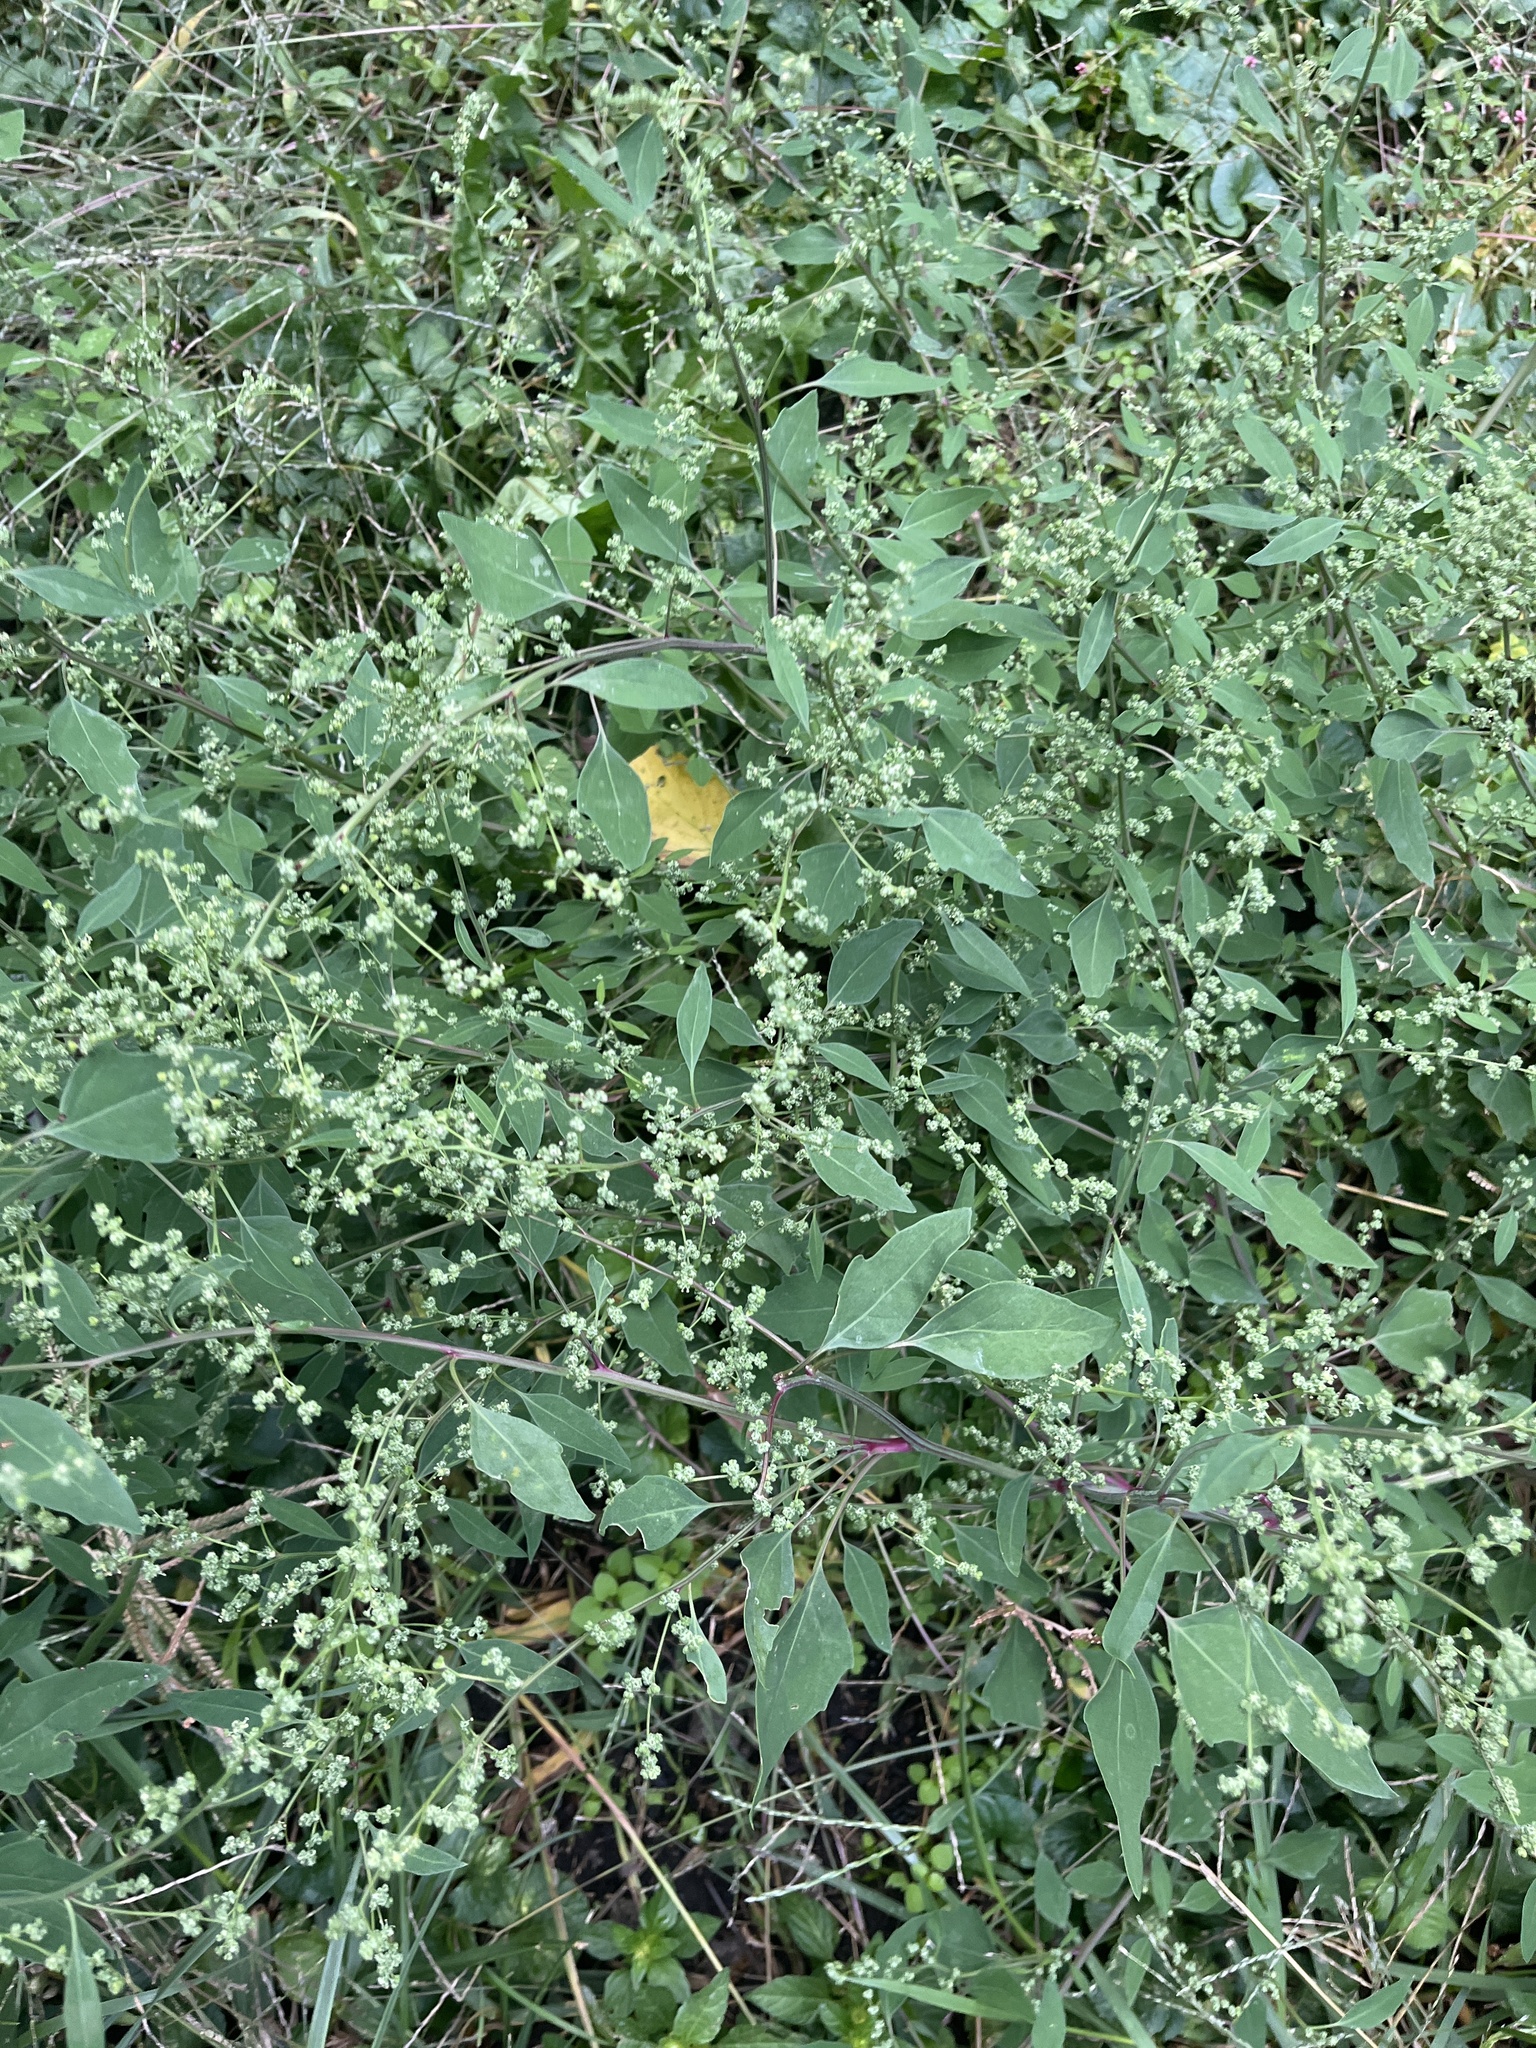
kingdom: Plantae
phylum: Tracheophyta
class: Magnoliopsida
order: Caryophyllales
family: Amaranthaceae
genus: Chenopodium
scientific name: Chenopodium album
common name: Fat-hen
